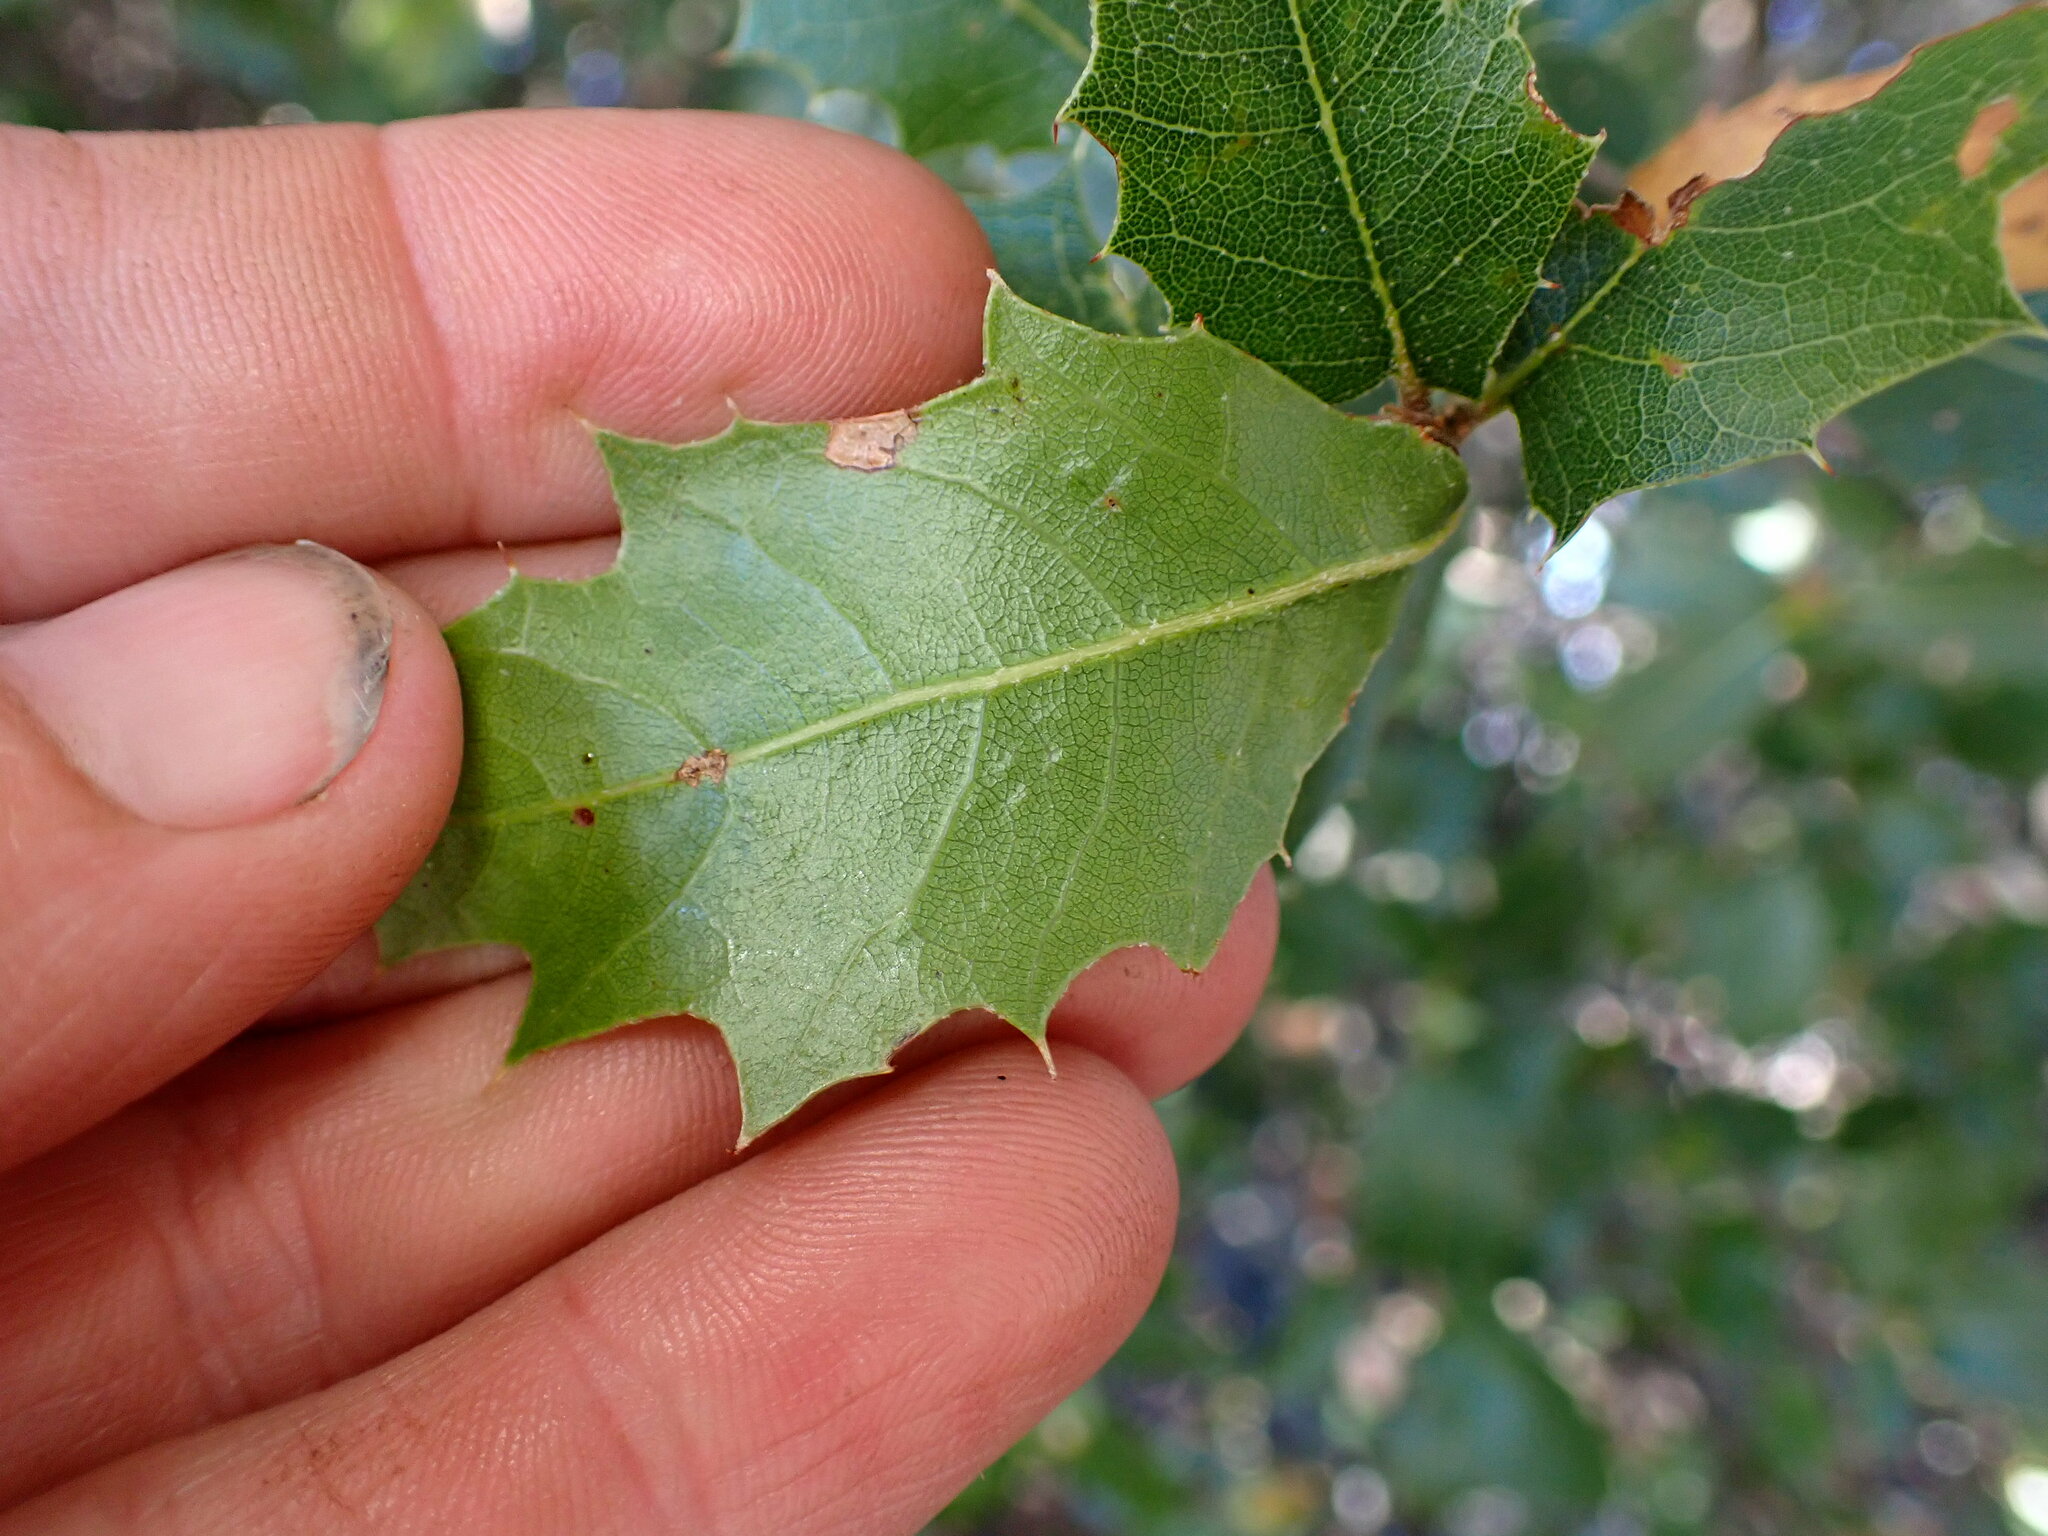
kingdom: Plantae
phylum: Tracheophyta
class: Magnoliopsida
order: Fagales
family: Fagaceae
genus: Quercus
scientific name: Quercus wislizeni
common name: Interior live oak
